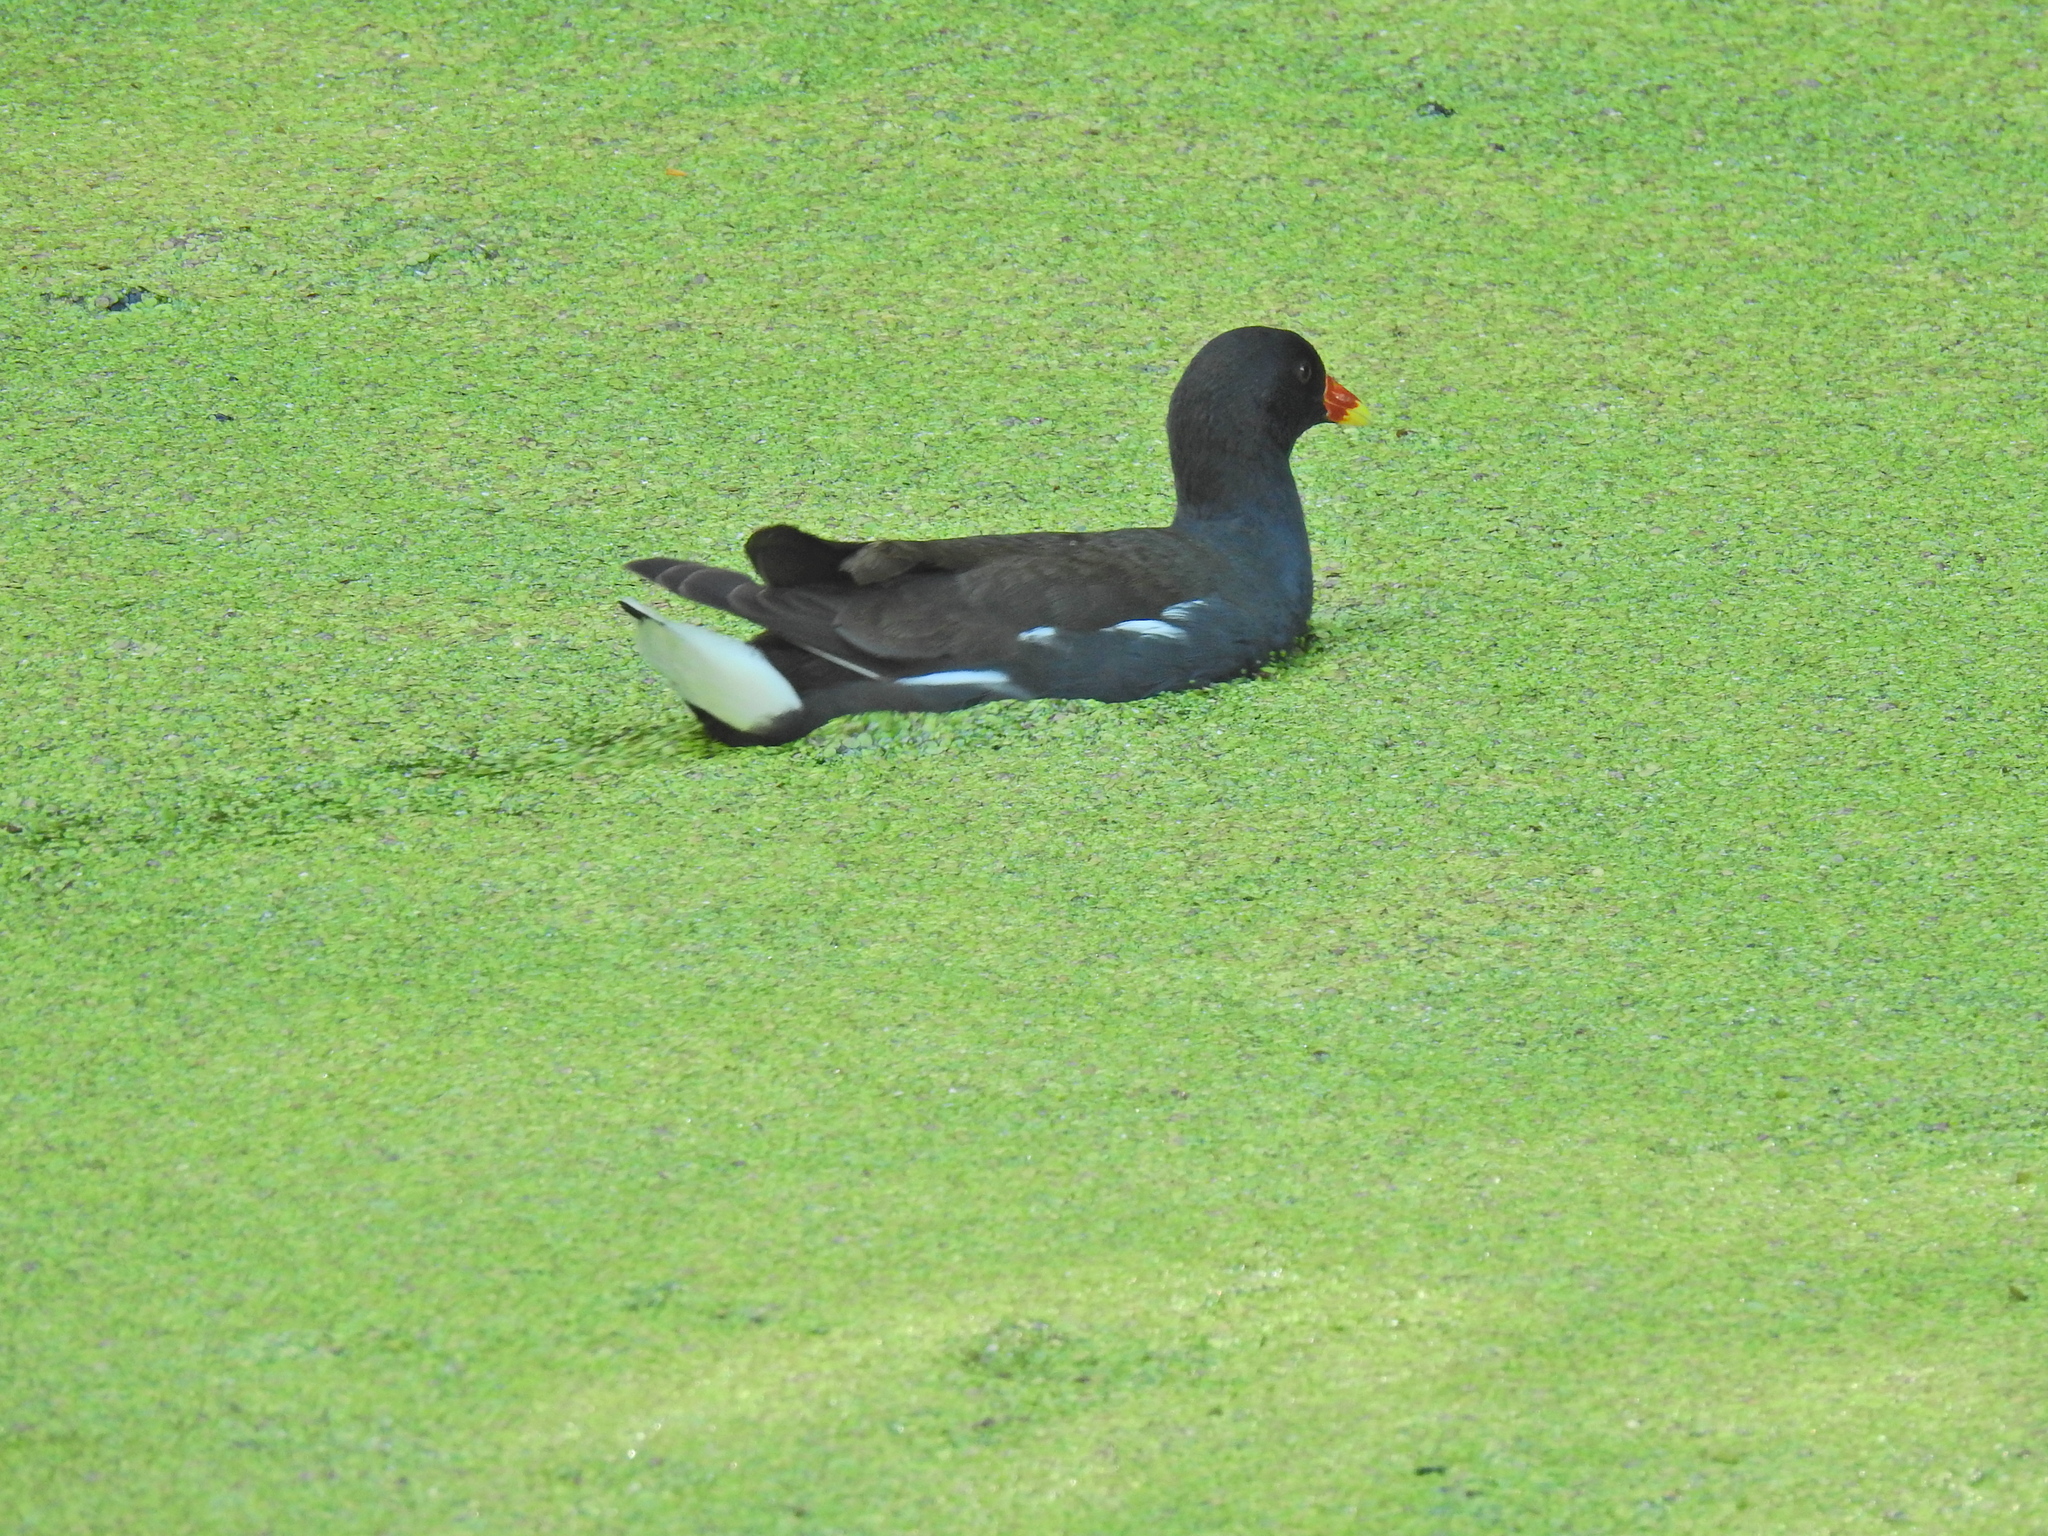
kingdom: Animalia
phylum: Chordata
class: Aves
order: Gruiformes
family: Rallidae
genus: Gallinula
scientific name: Gallinula chloropus
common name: Common moorhen
